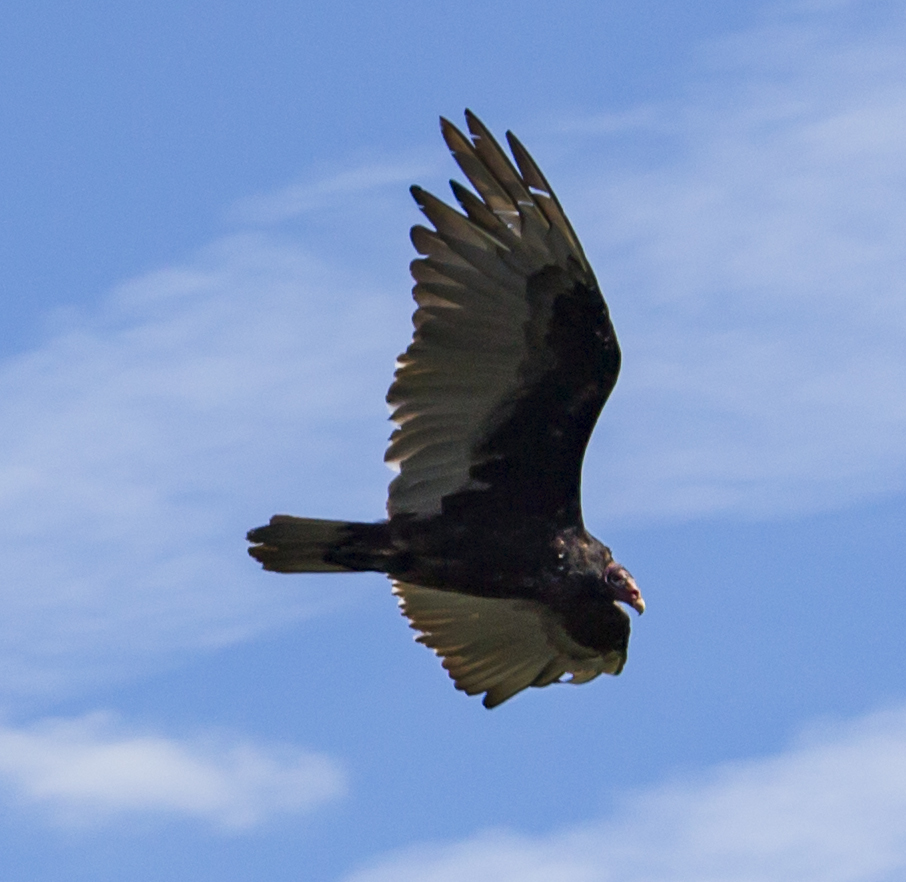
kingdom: Animalia
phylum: Chordata
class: Aves
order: Accipitriformes
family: Cathartidae
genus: Cathartes
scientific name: Cathartes aura
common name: Turkey vulture
